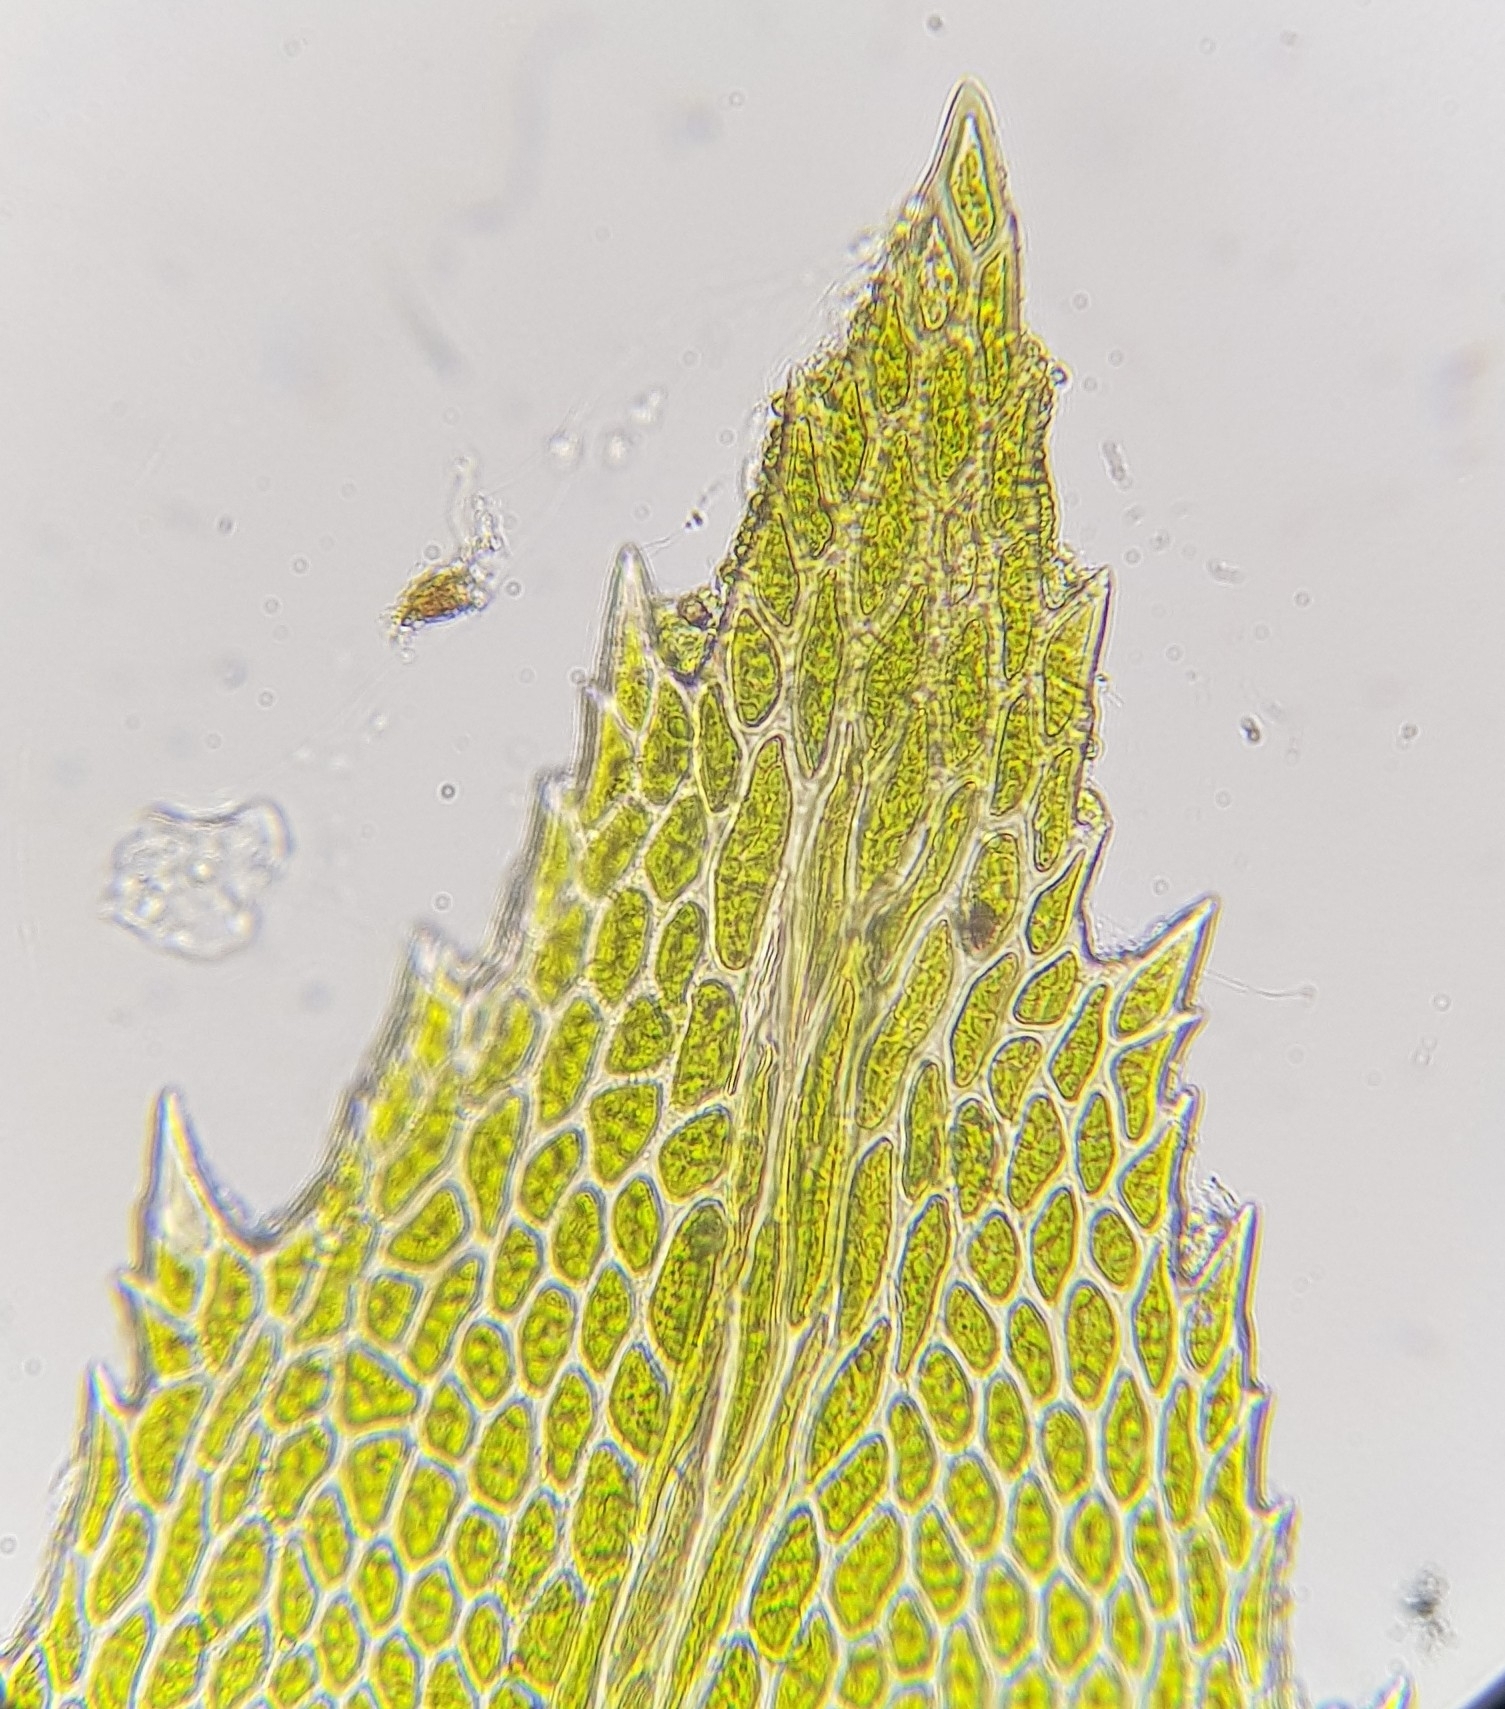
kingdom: Plantae
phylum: Bryophyta
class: Bryopsida
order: Hypnales
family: Neckeraceae
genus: Thamnobryum
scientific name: Thamnobryum alopecurum
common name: Fox-tail feather-moss
